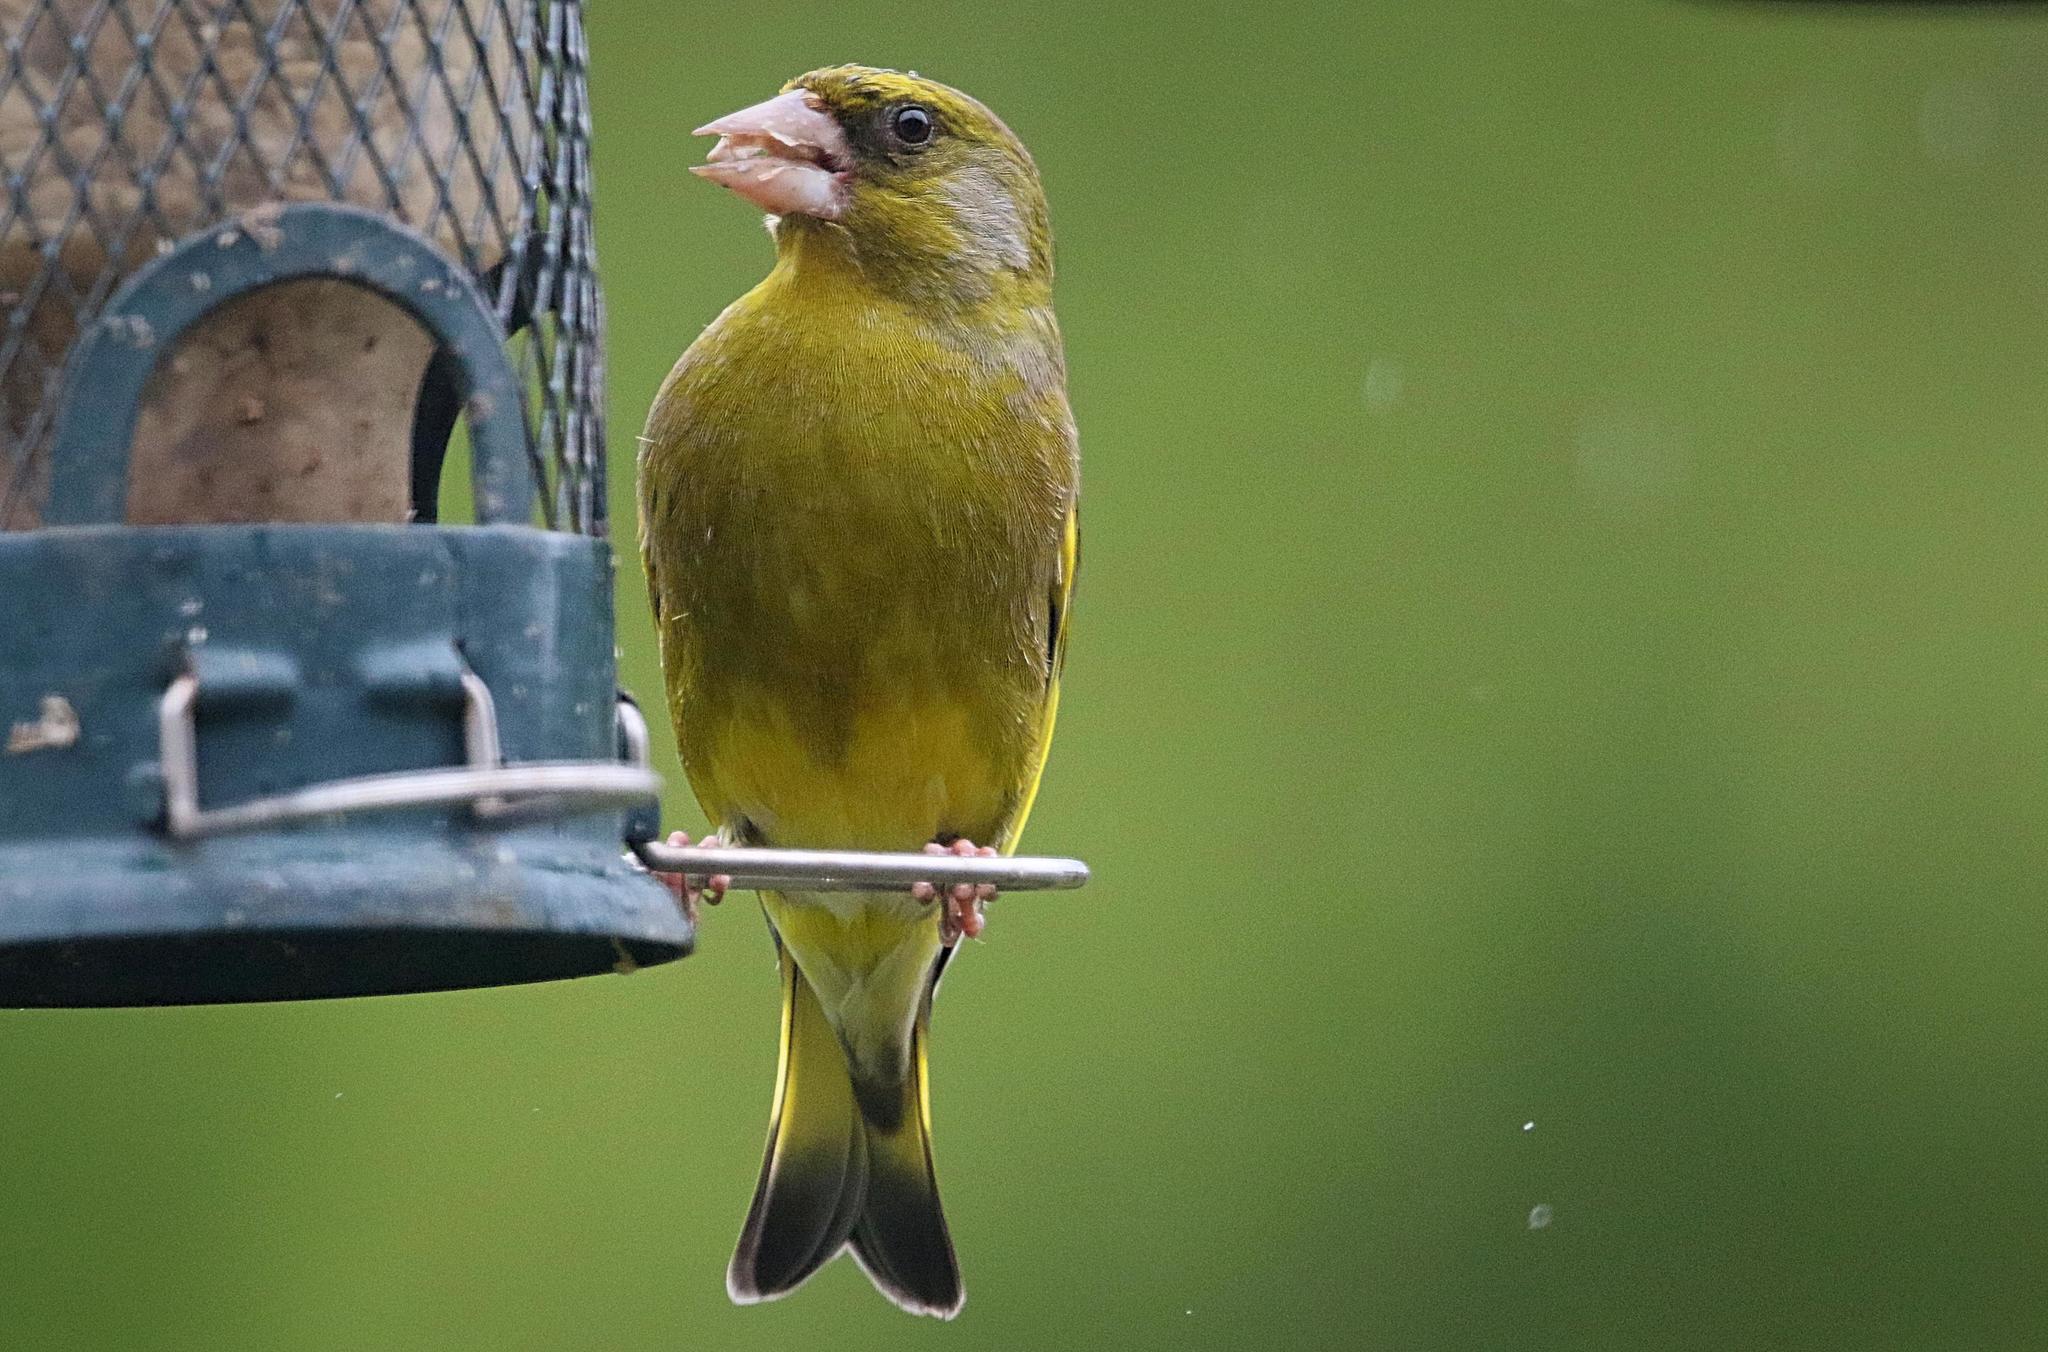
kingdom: Plantae
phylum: Tracheophyta
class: Liliopsida
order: Poales
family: Poaceae
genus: Chloris
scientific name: Chloris chloris
